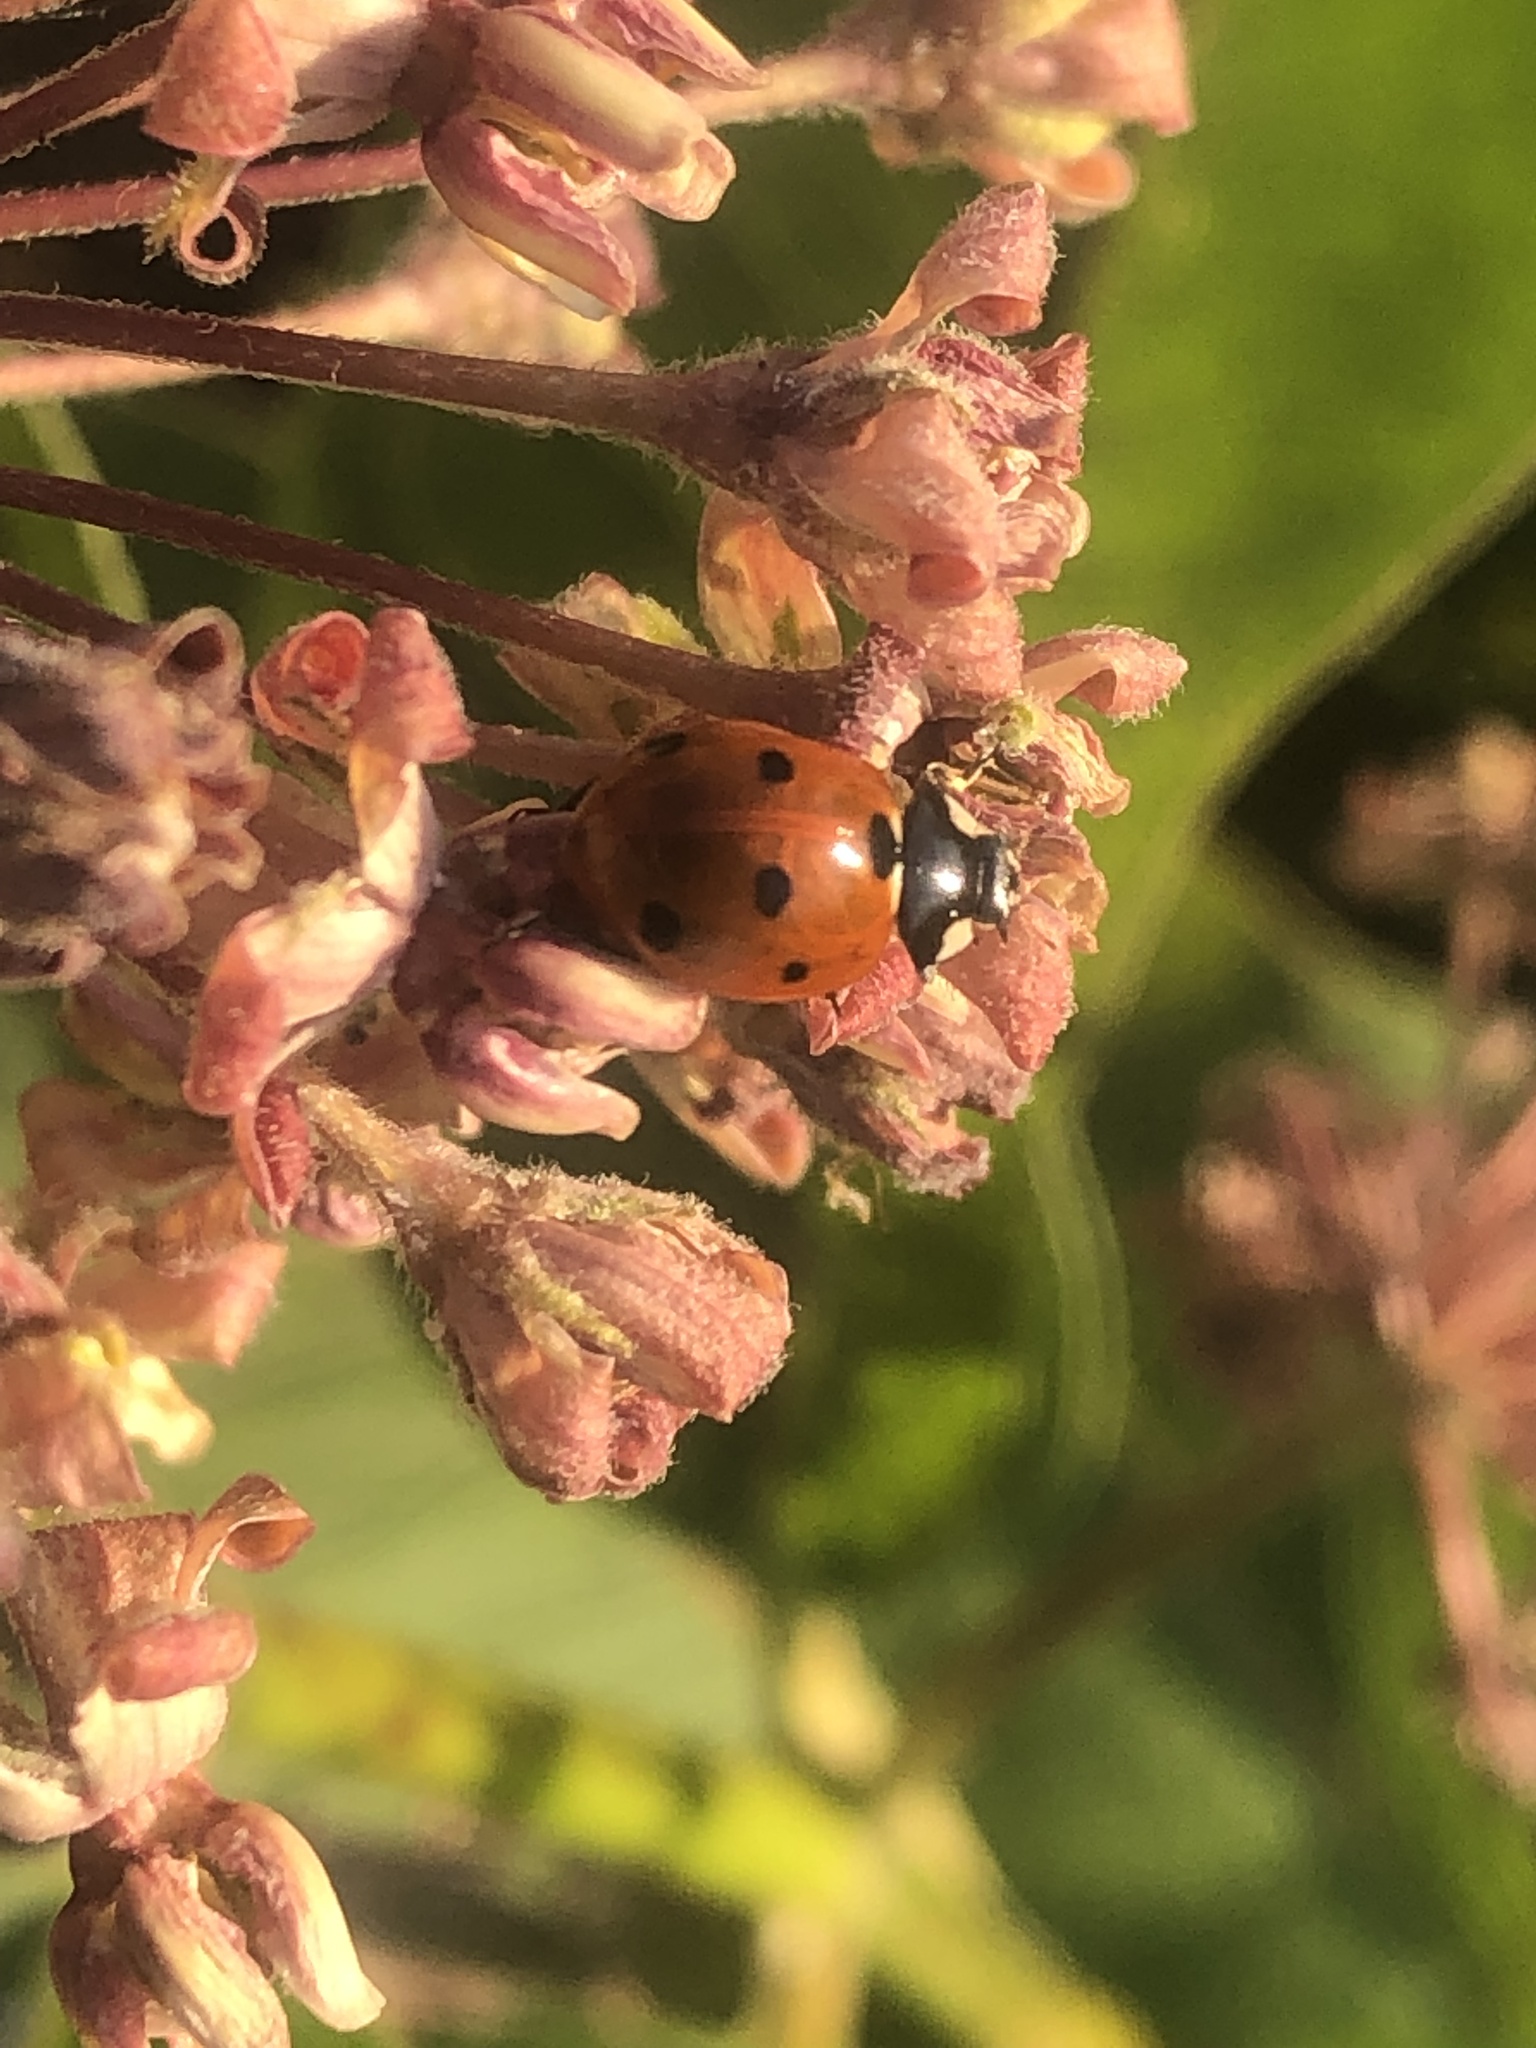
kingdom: Animalia
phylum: Arthropoda
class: Insecta
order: Coleoptera
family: Coccinellidae
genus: Coccinella
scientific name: Coccinella septempunctata
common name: Sevenspotted lady beetle
